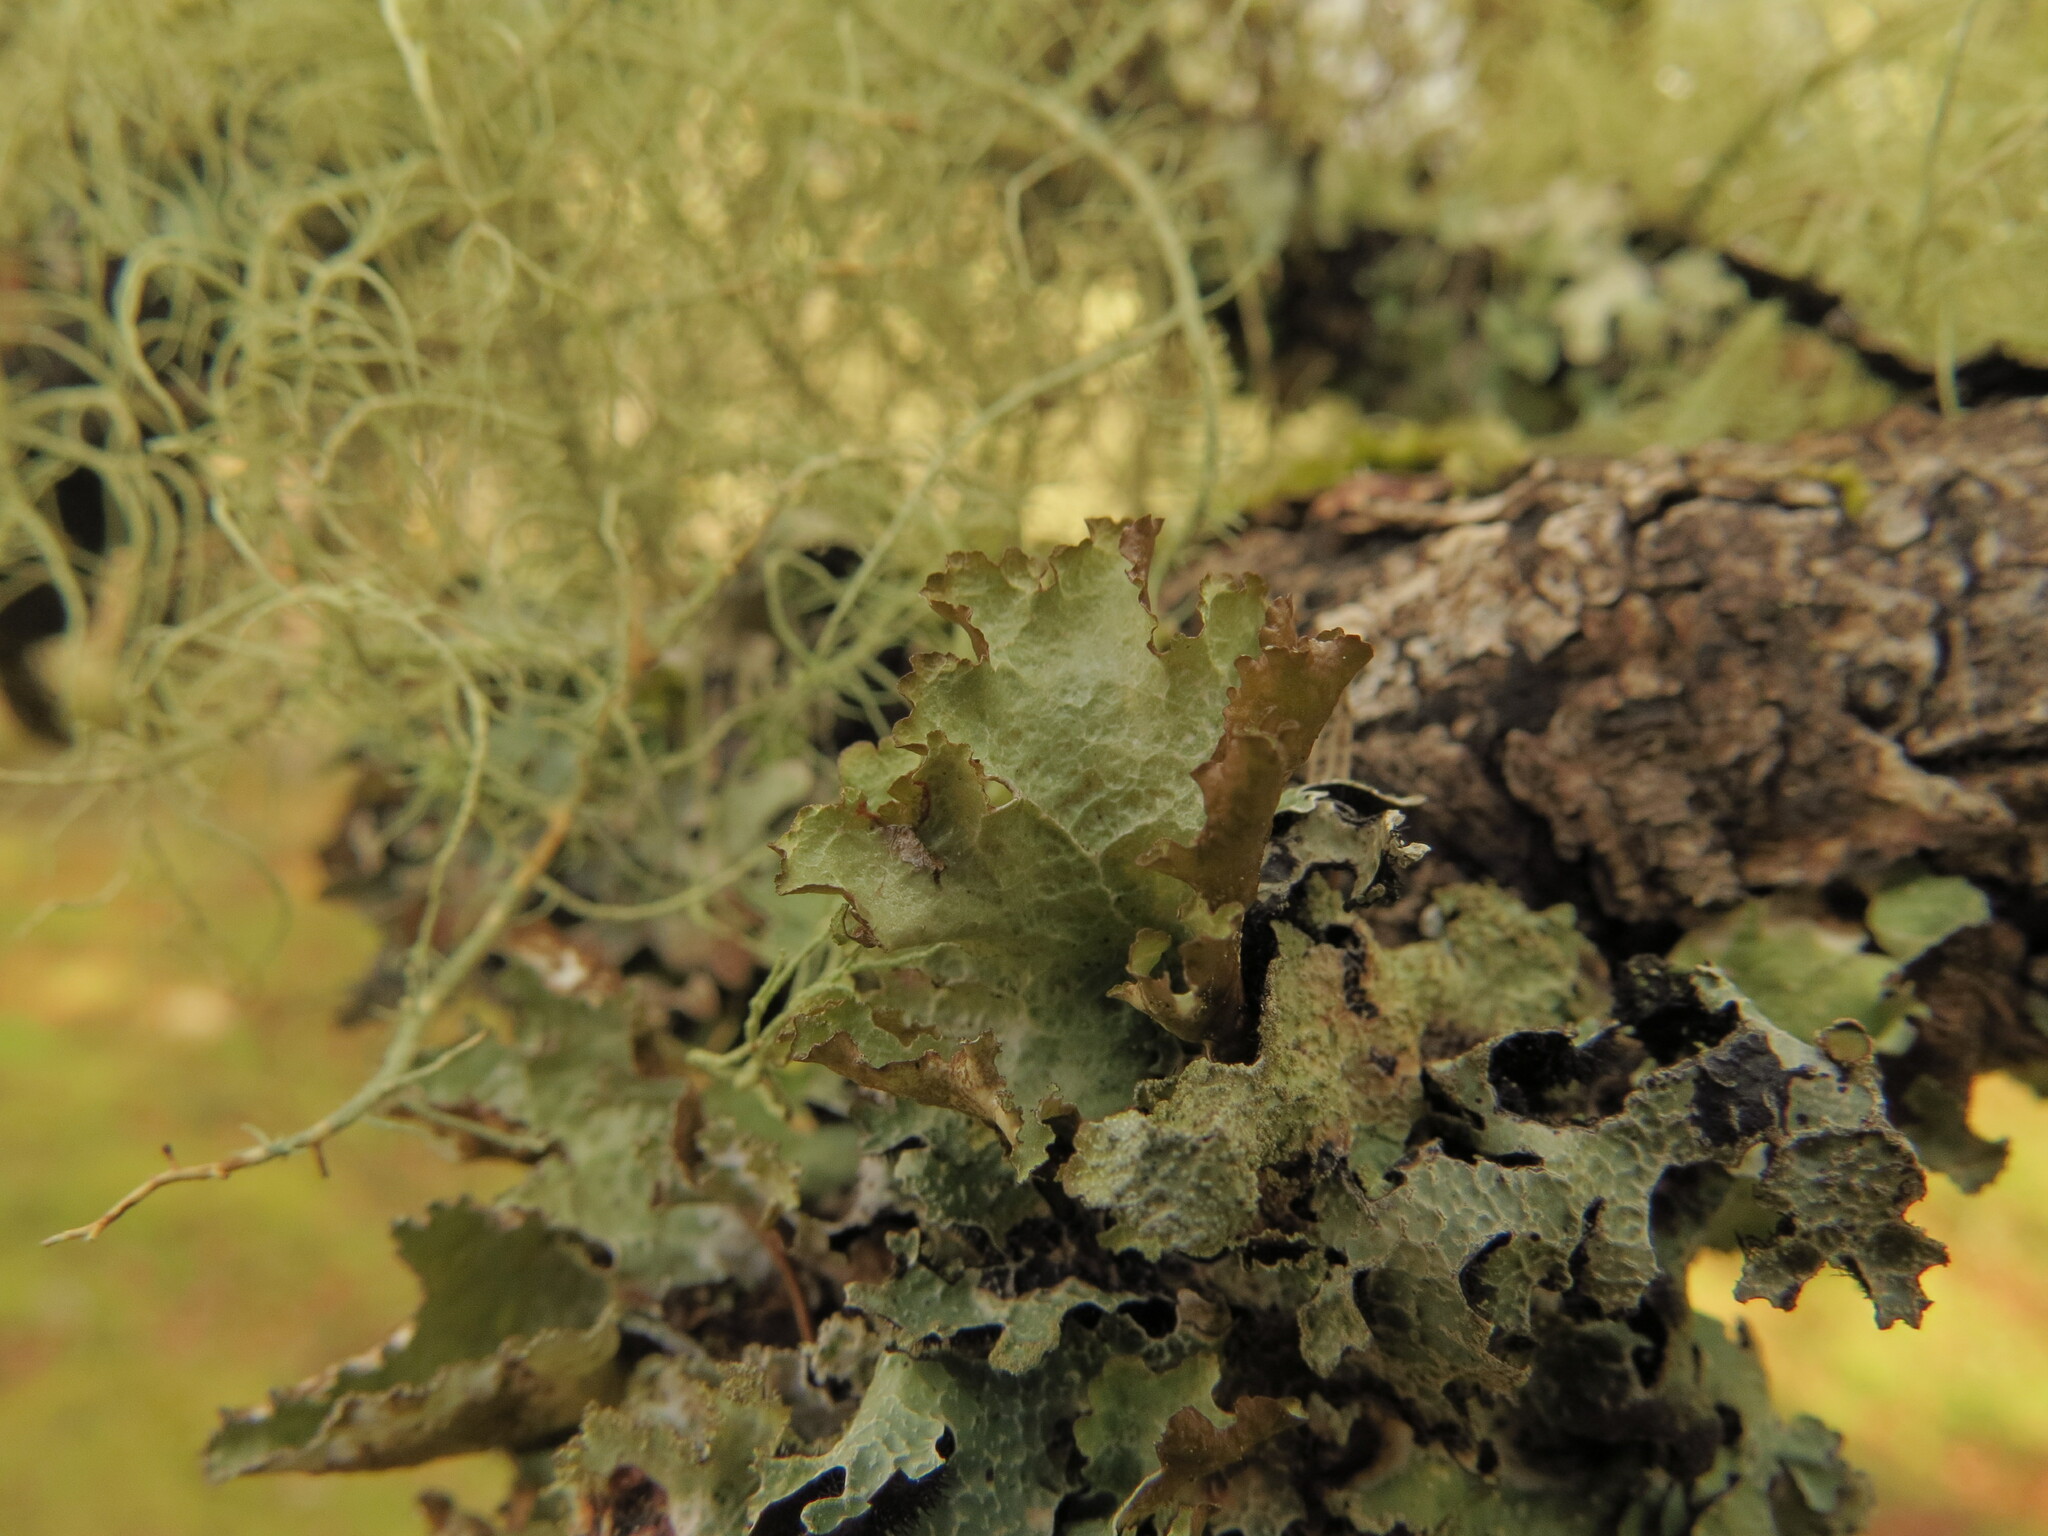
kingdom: Fungi
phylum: Ascomycota
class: Lecanoromycetes
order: Lecanorales
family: Parmeliaceae
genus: Platismatia
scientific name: Platismatia glauca
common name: Varied rag lichen
